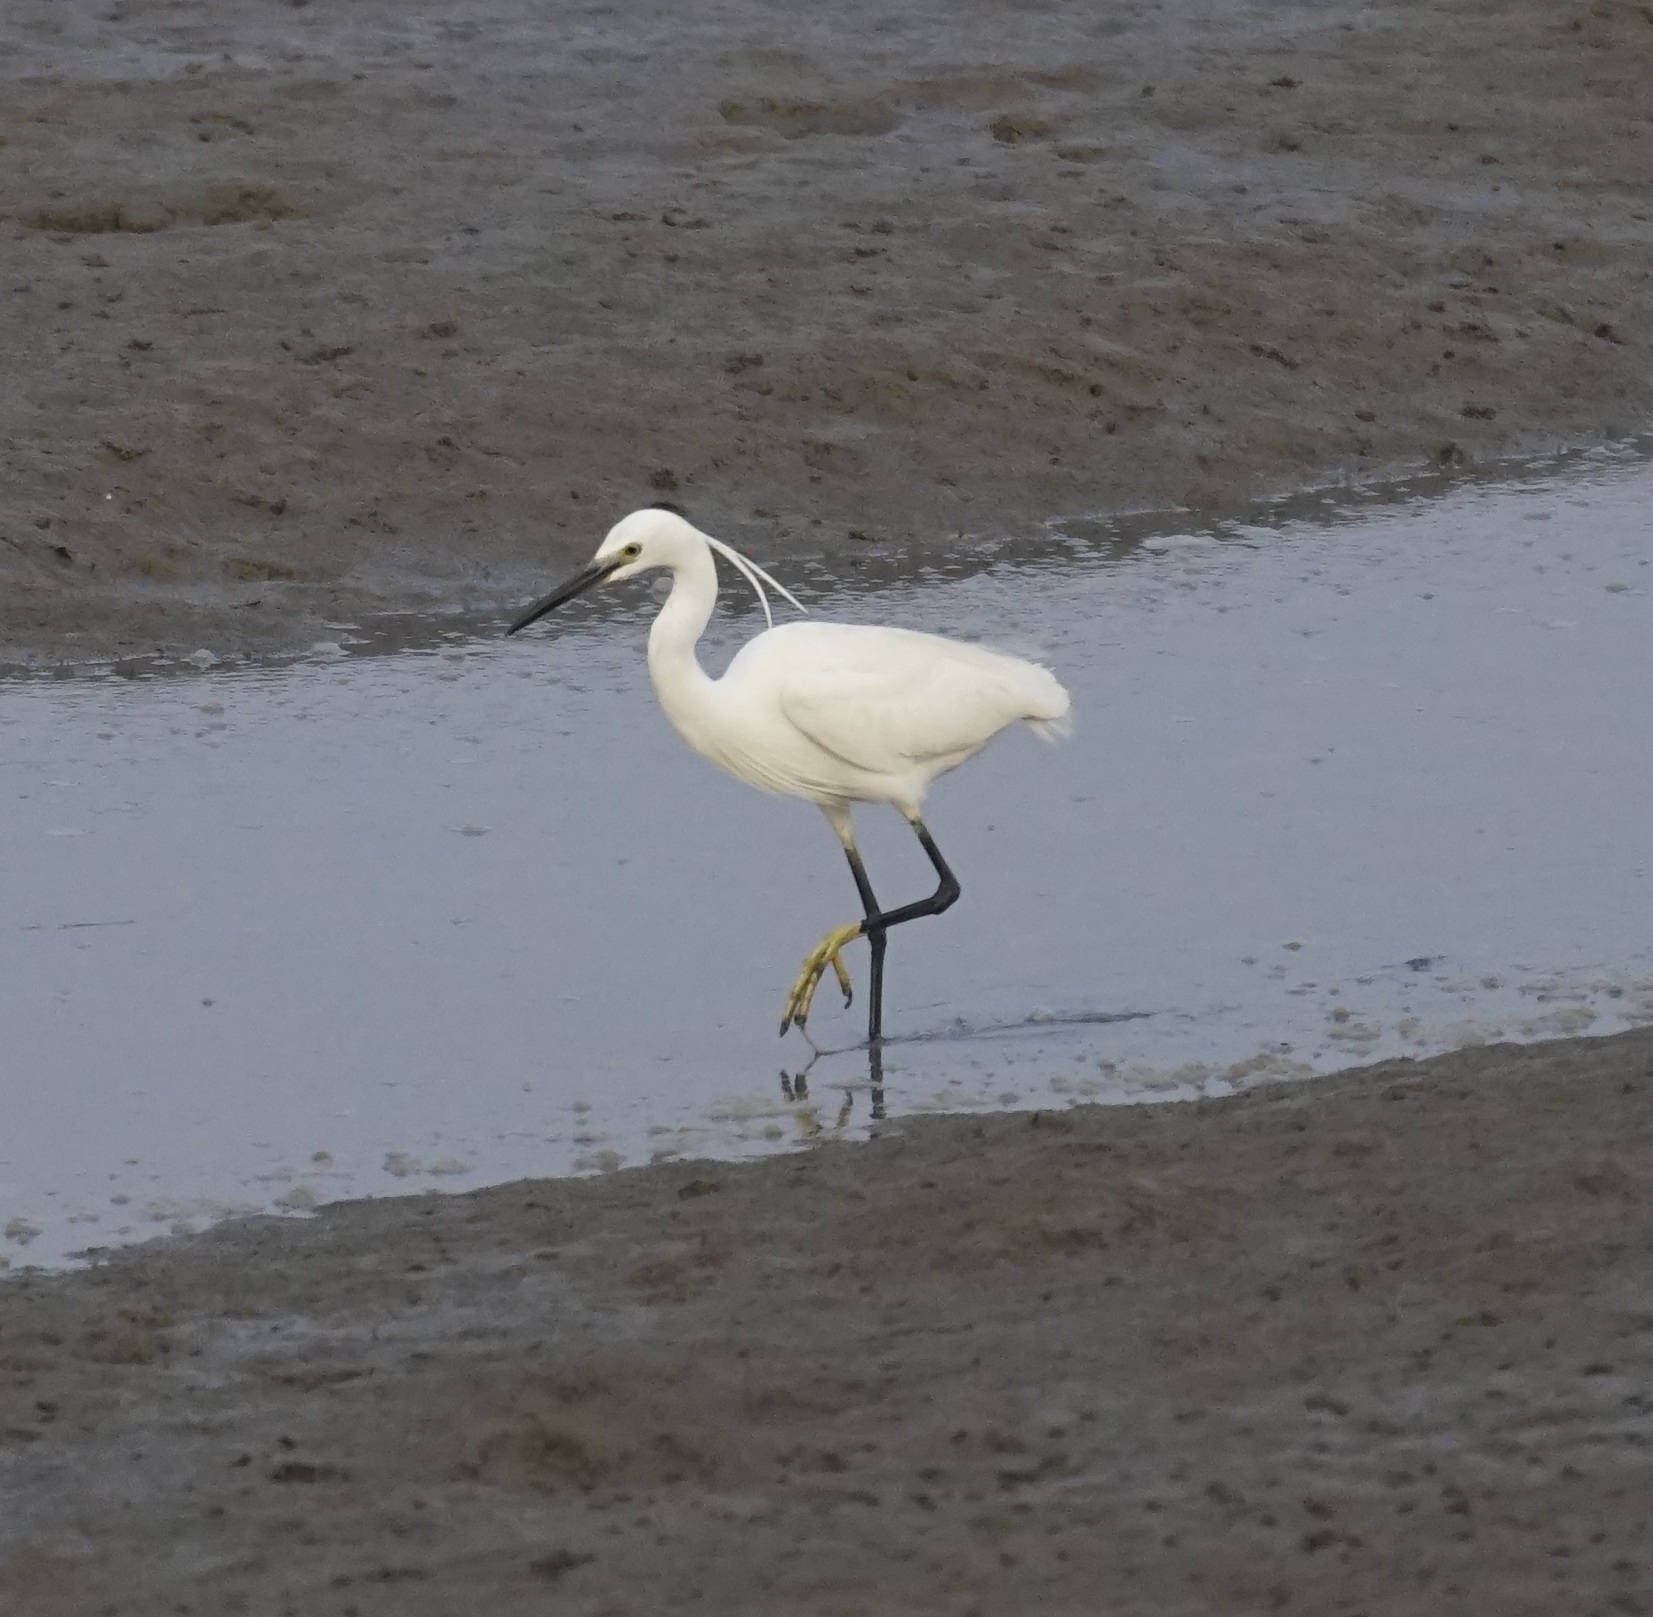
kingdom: Animalia
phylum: Chordata
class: Aves
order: Pelecaniformes
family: Ardeidae
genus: Egretta
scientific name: Egretta garzetta
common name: Little egret
